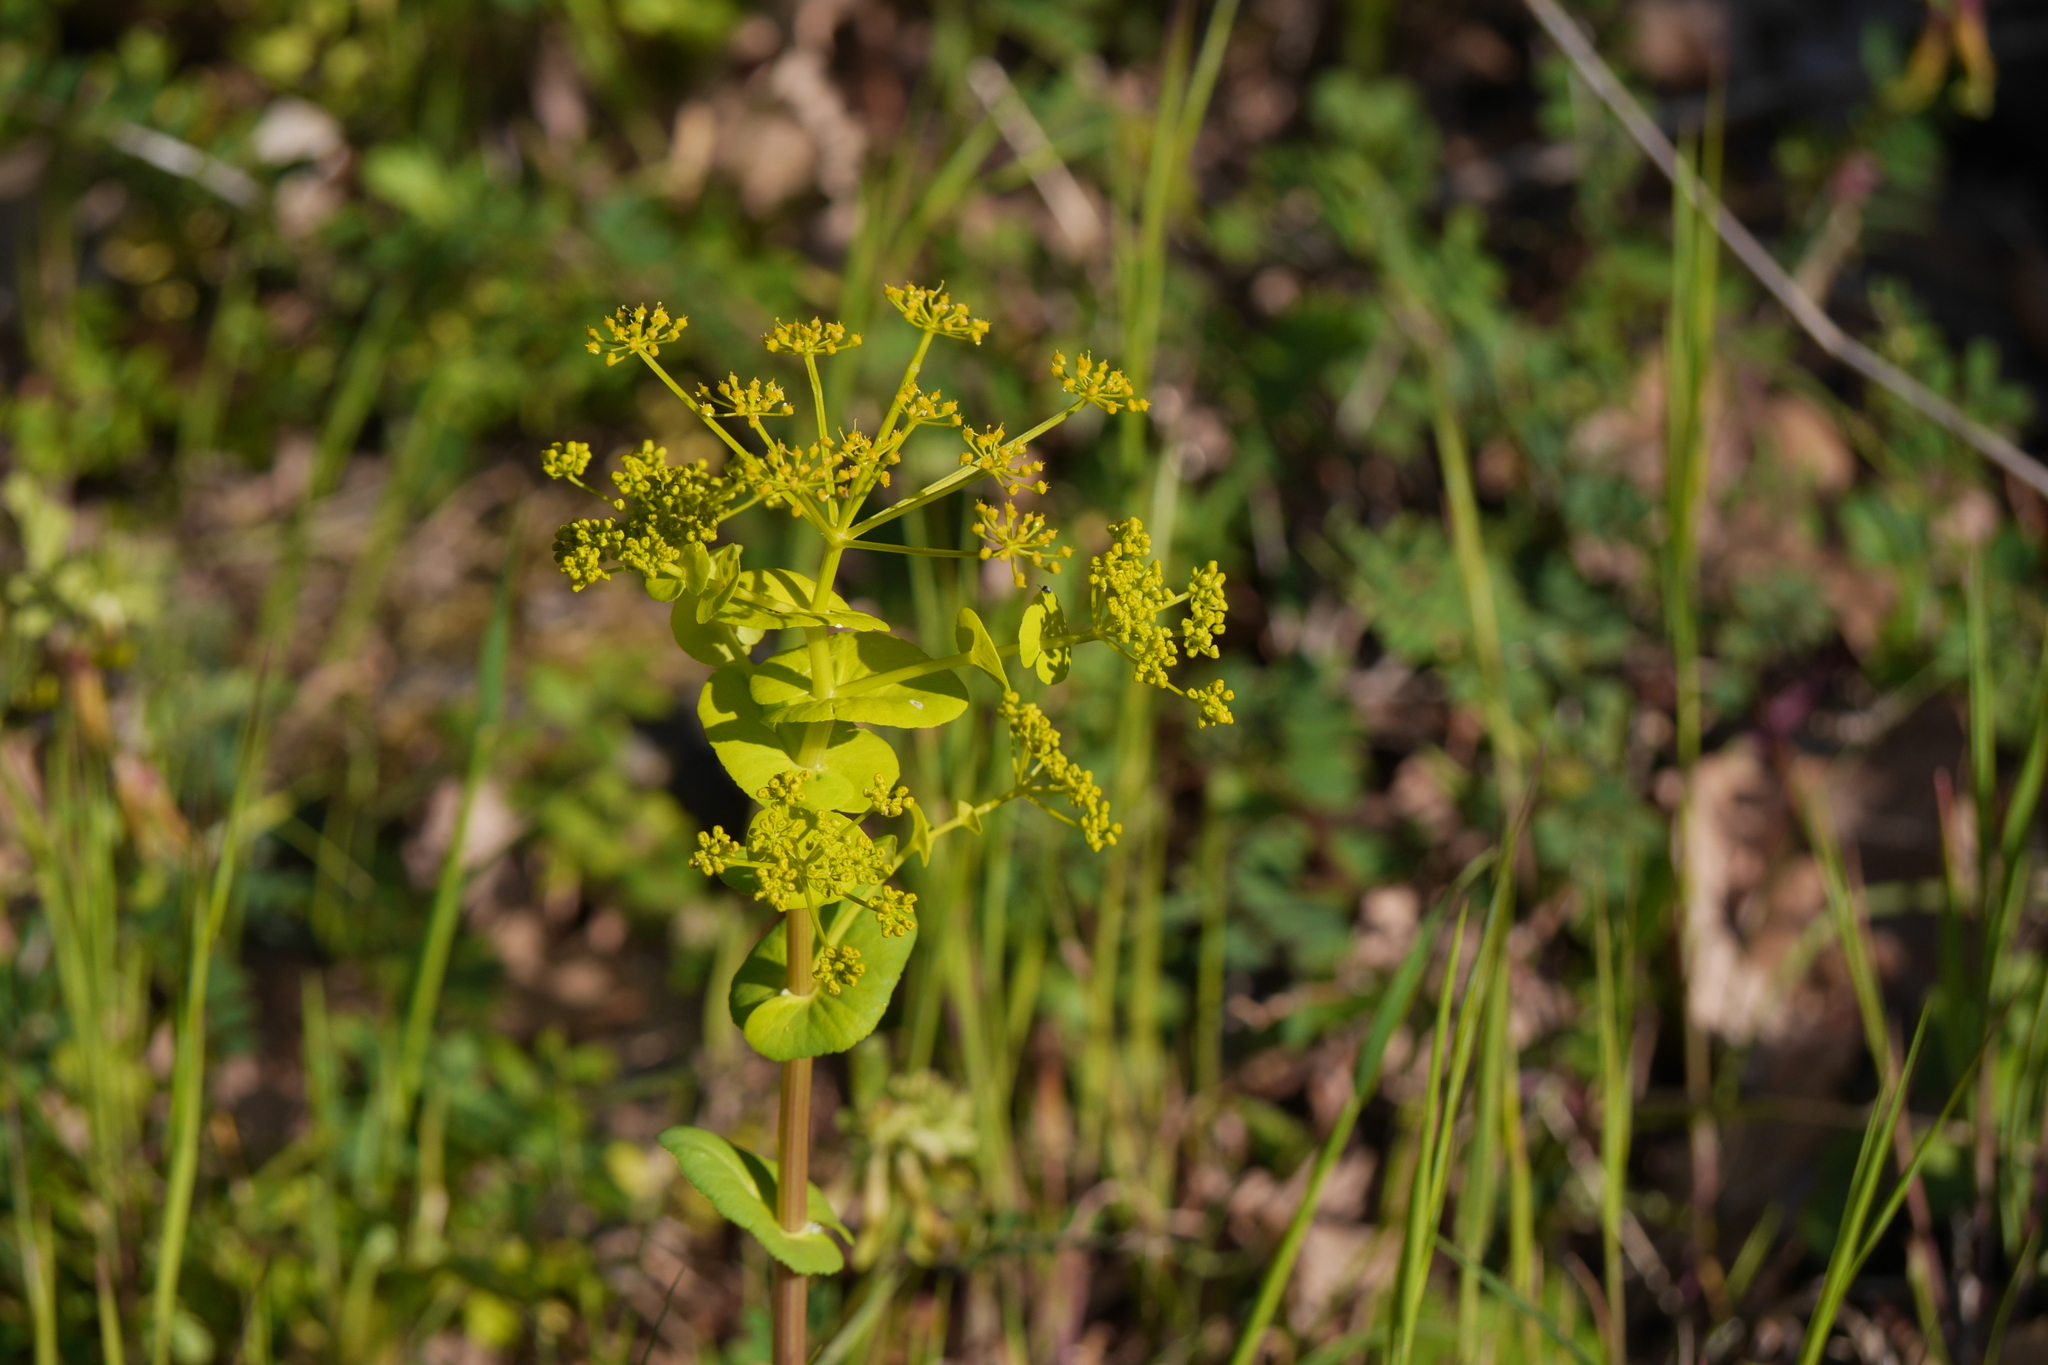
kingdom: Plantae
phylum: Tracheophyta
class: Magnoliopsida
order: Apiales
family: Apiaceae
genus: Smyrnium
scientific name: Smyrnium perfoliatum
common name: Perfoliate alexanders
